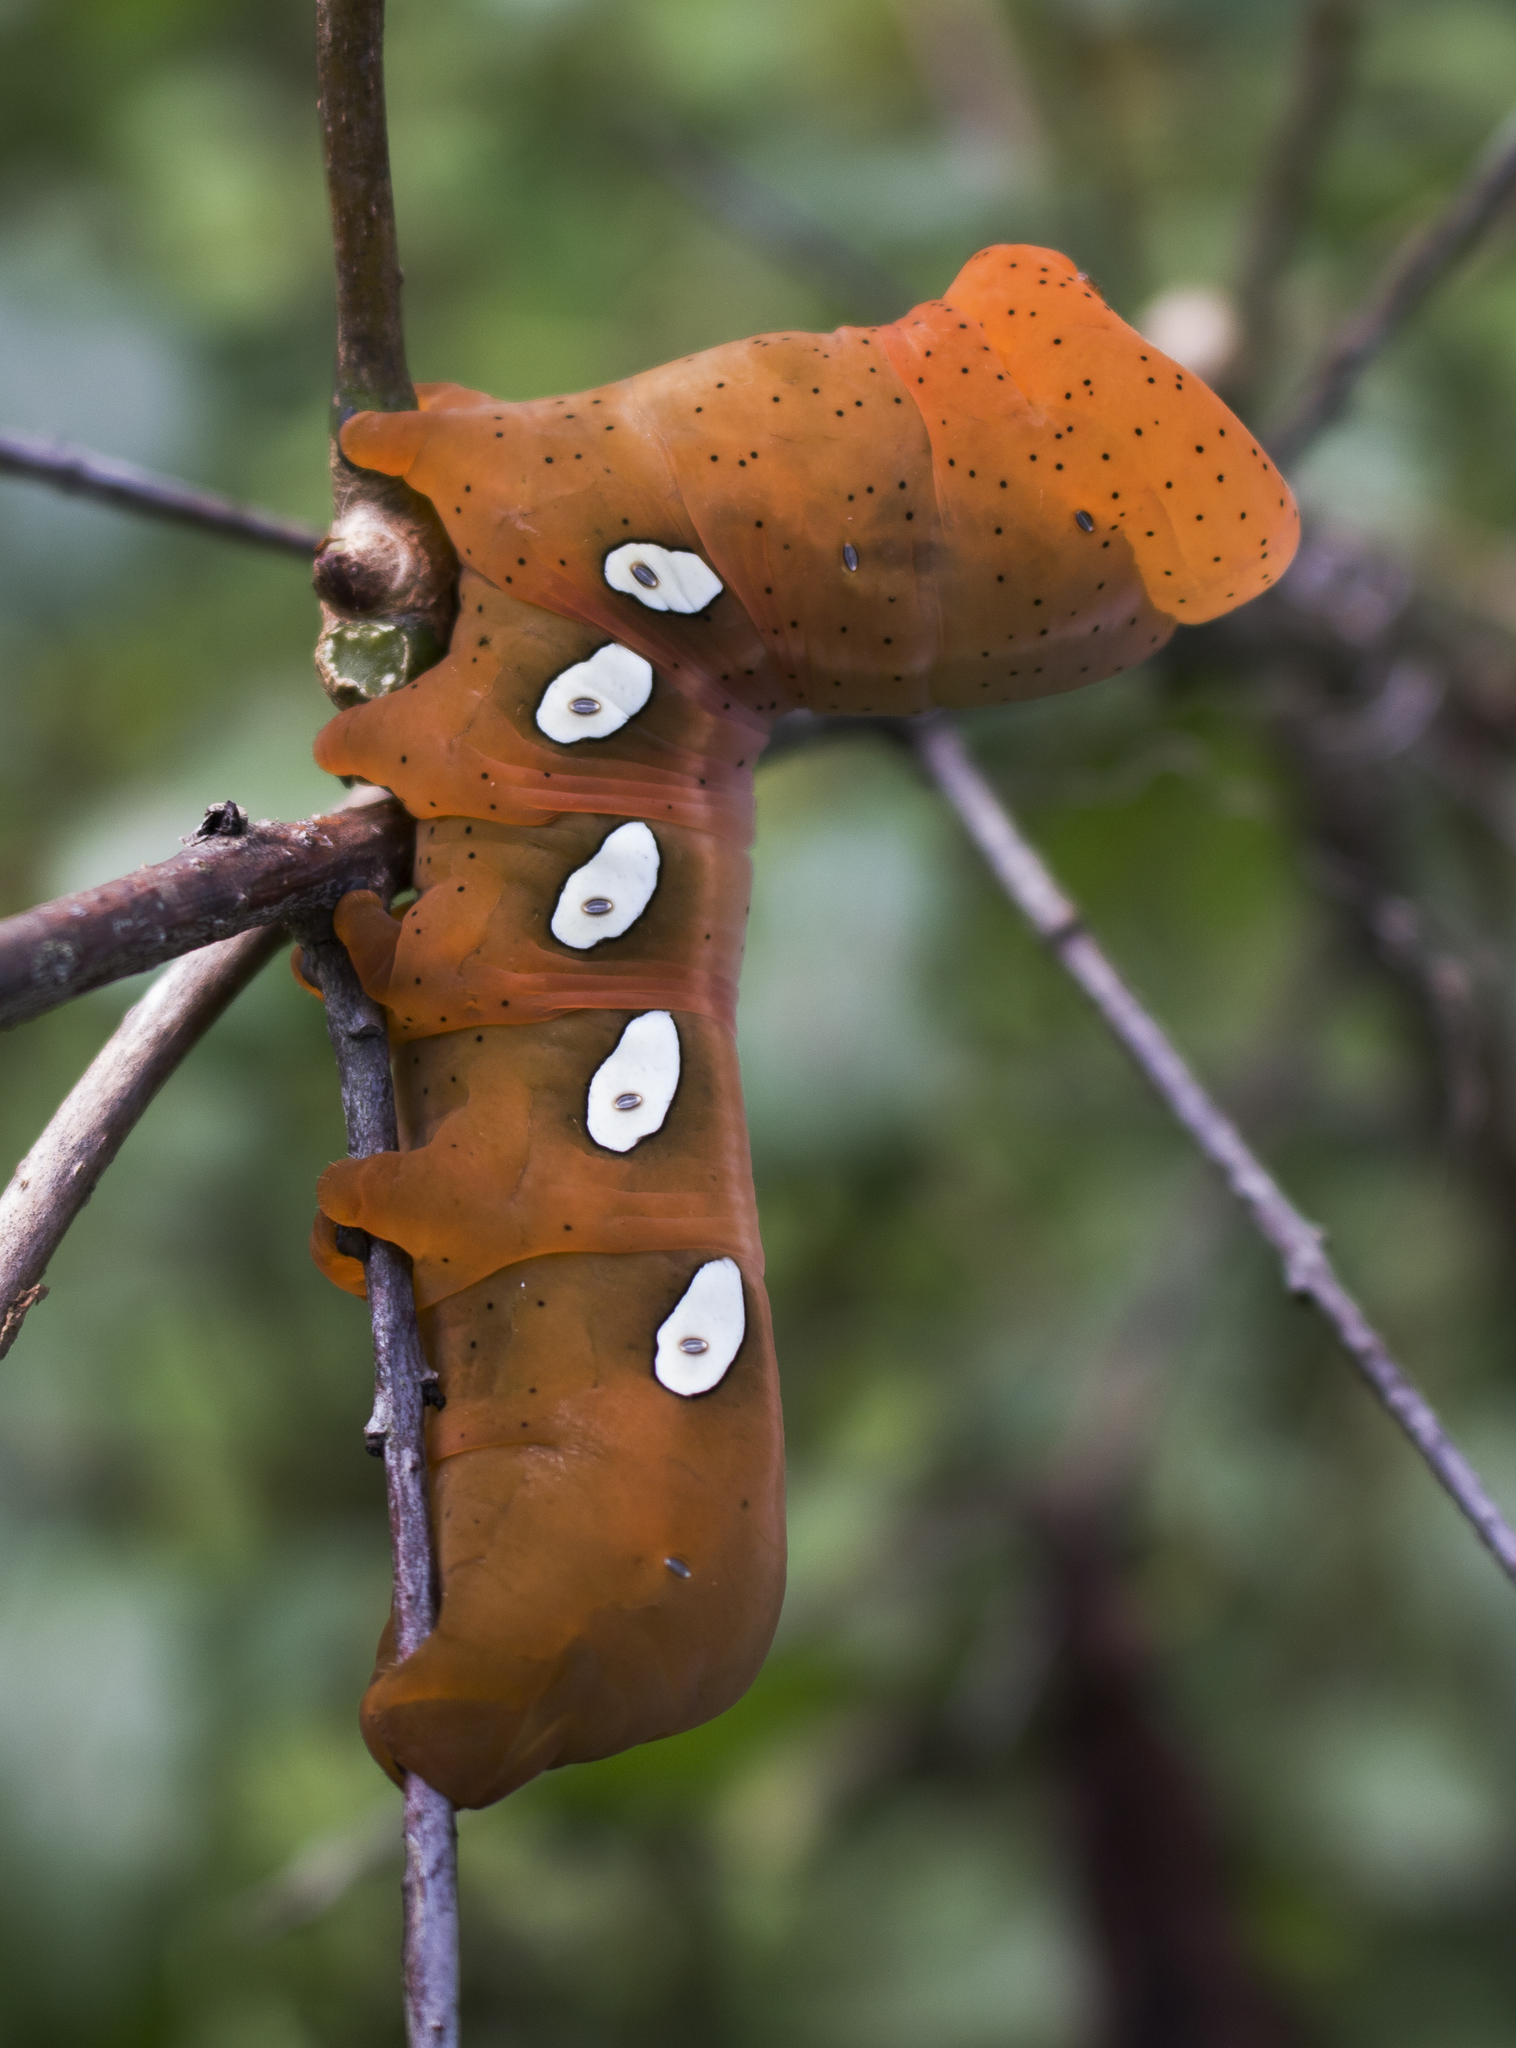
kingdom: Animalia
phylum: Arthropoda
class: Insecta
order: Lepidoptera
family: Sphingidae
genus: Eumorpha
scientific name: Eumorpha pandorus
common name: Pandora sphinx
